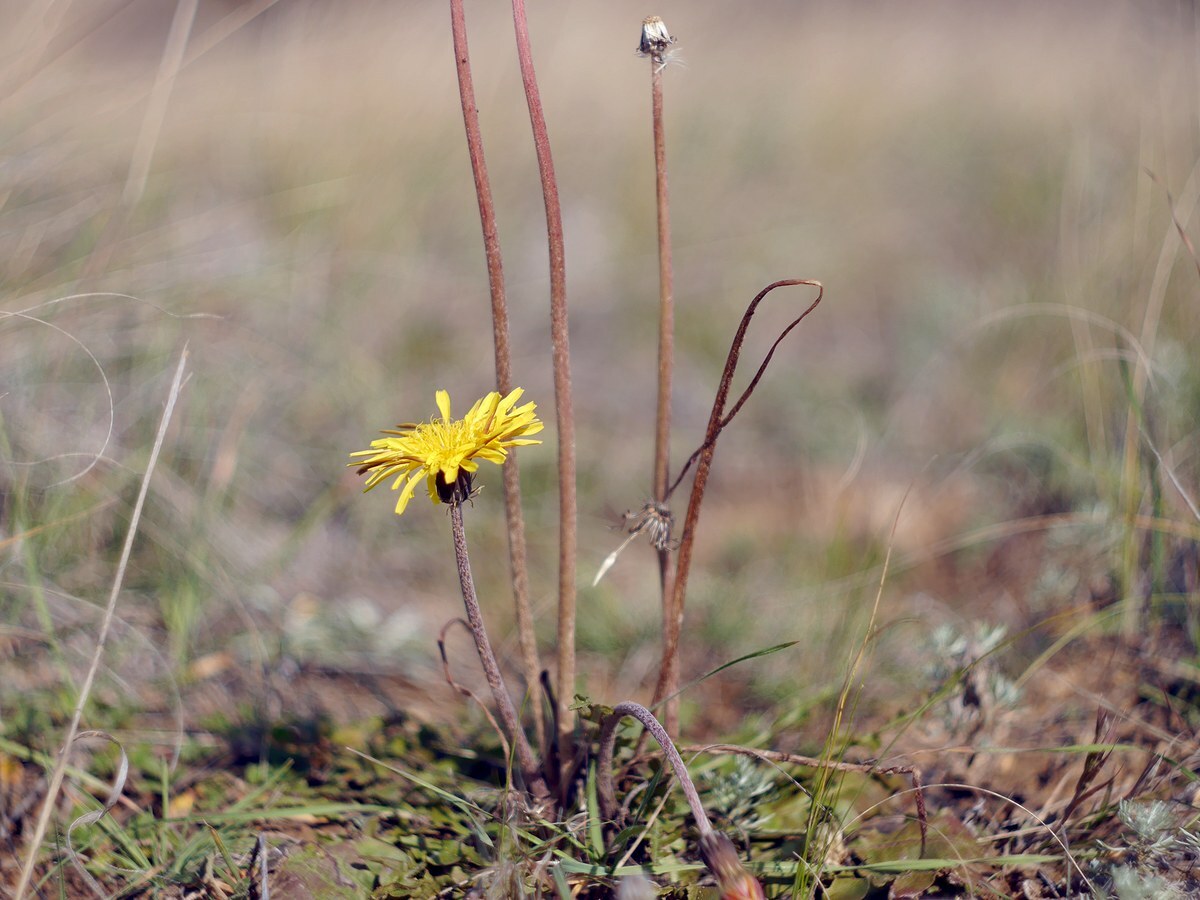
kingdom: Plantae
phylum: Tracheophyta
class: Magnoliopsida
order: Asterales
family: Asteraceae
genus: Taraxacum
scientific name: Taraxacum serotinum
